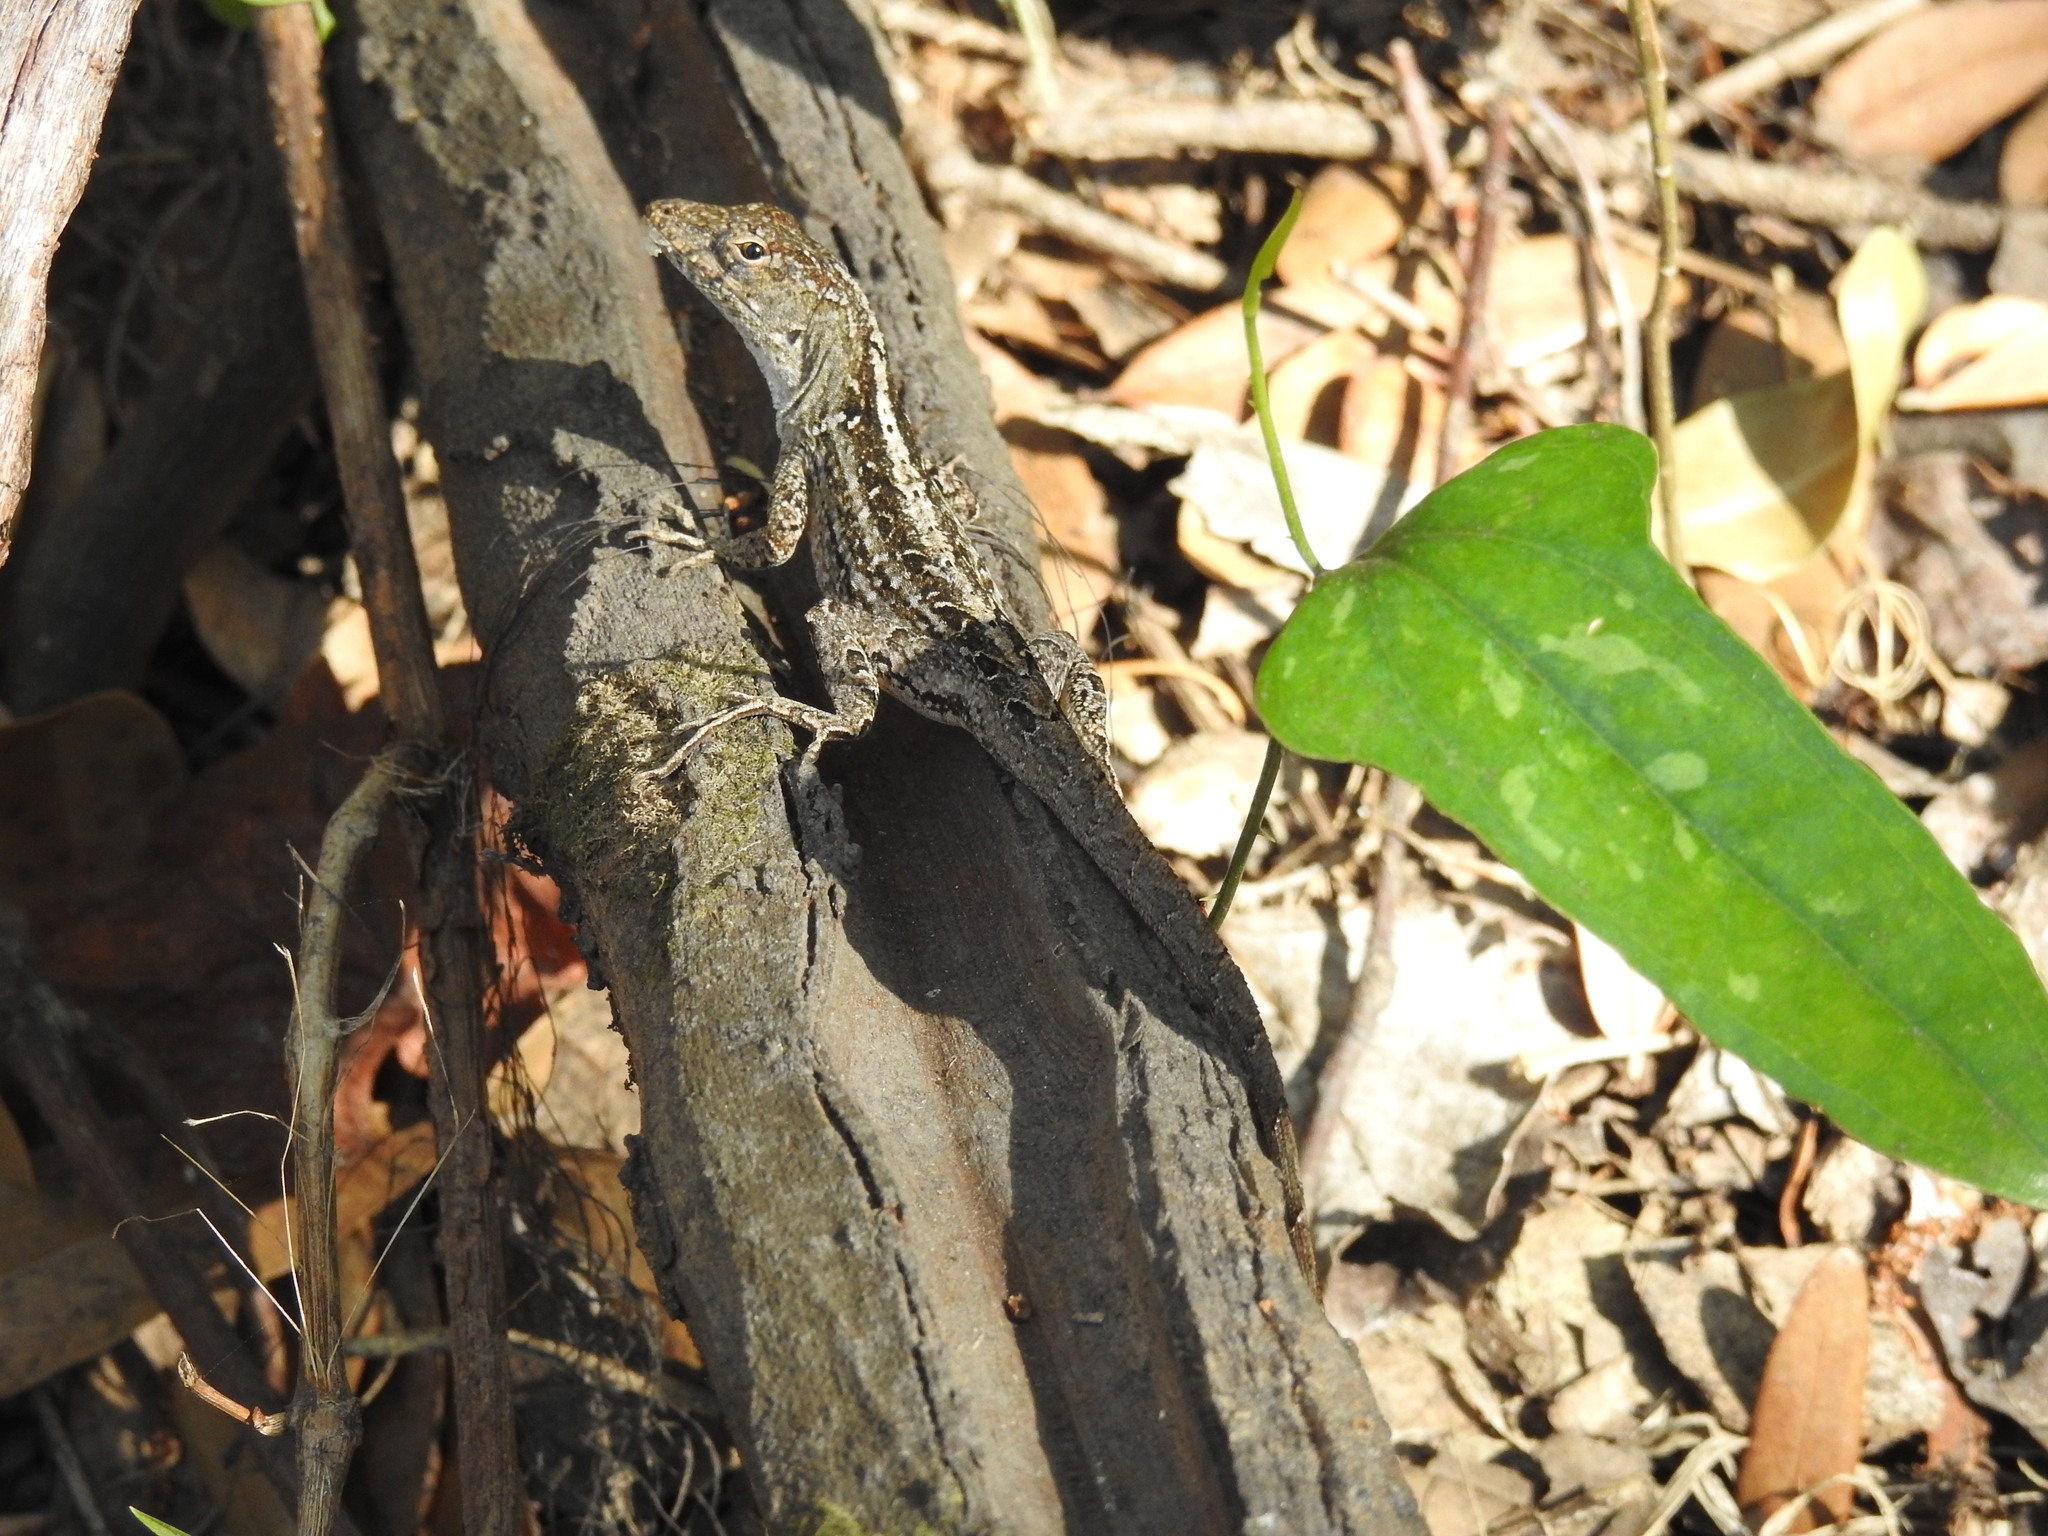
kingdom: Animalia
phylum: Chordata
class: Squamata
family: Dactyloidae
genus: Anolis
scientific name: Anolis sagrei
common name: Brown anole
